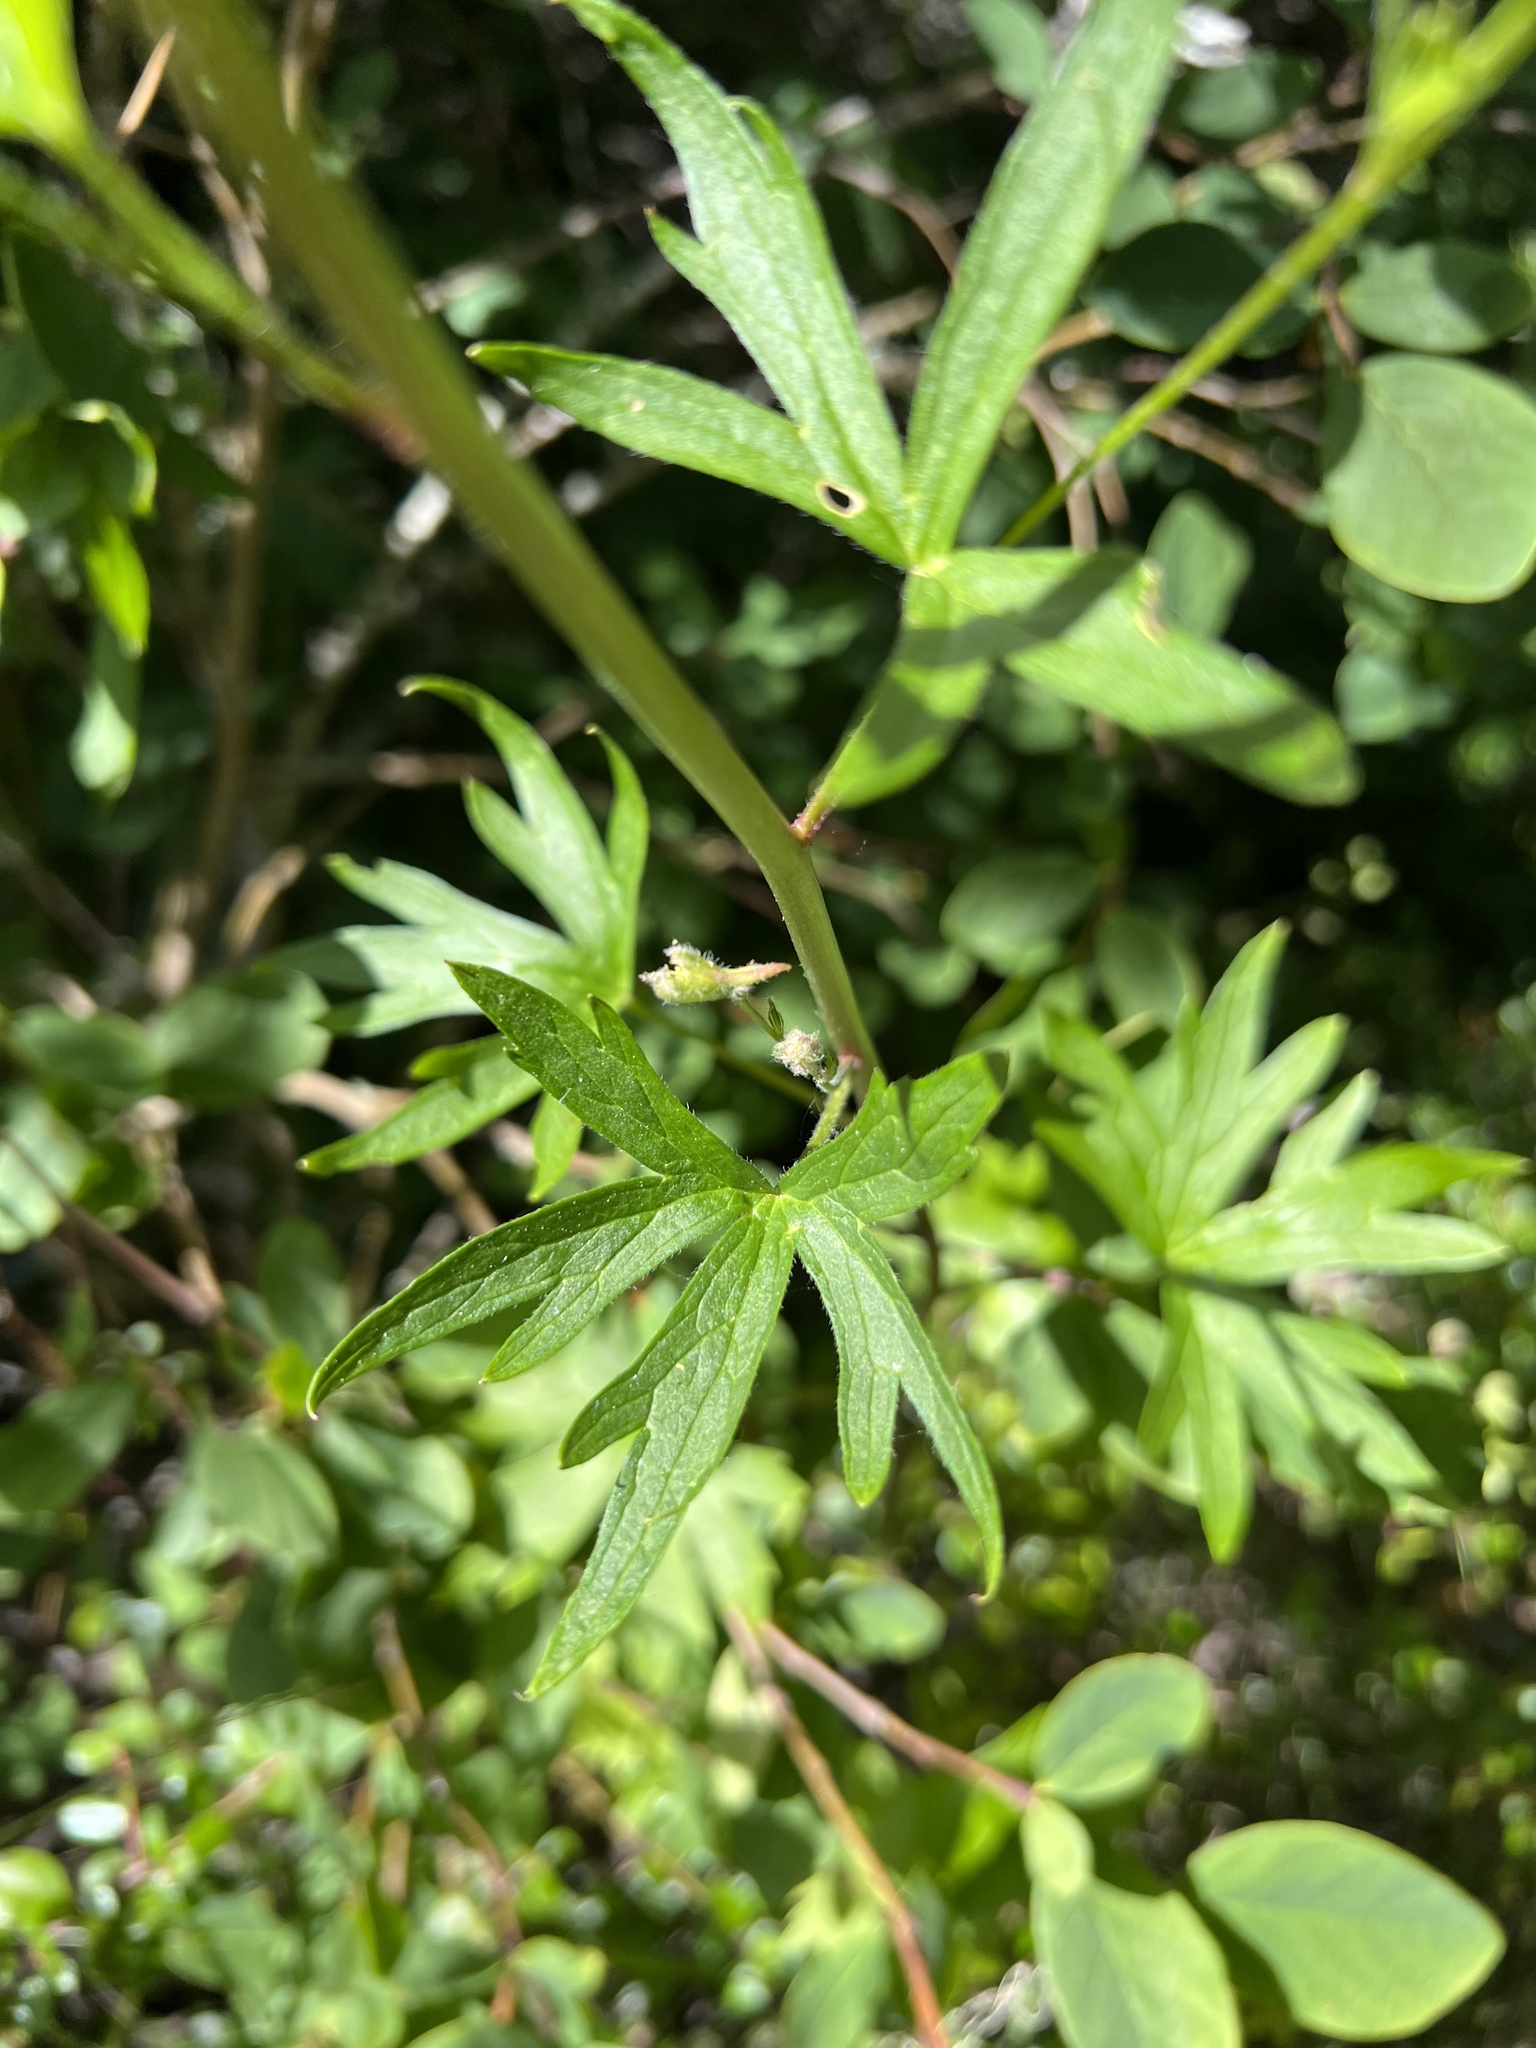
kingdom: Plantae
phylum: Tracheophyta
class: Magnoliopsida
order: Ranunculales
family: Ranunculaceae
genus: Delphinium
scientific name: Delphinium californicum
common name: California larkspur
